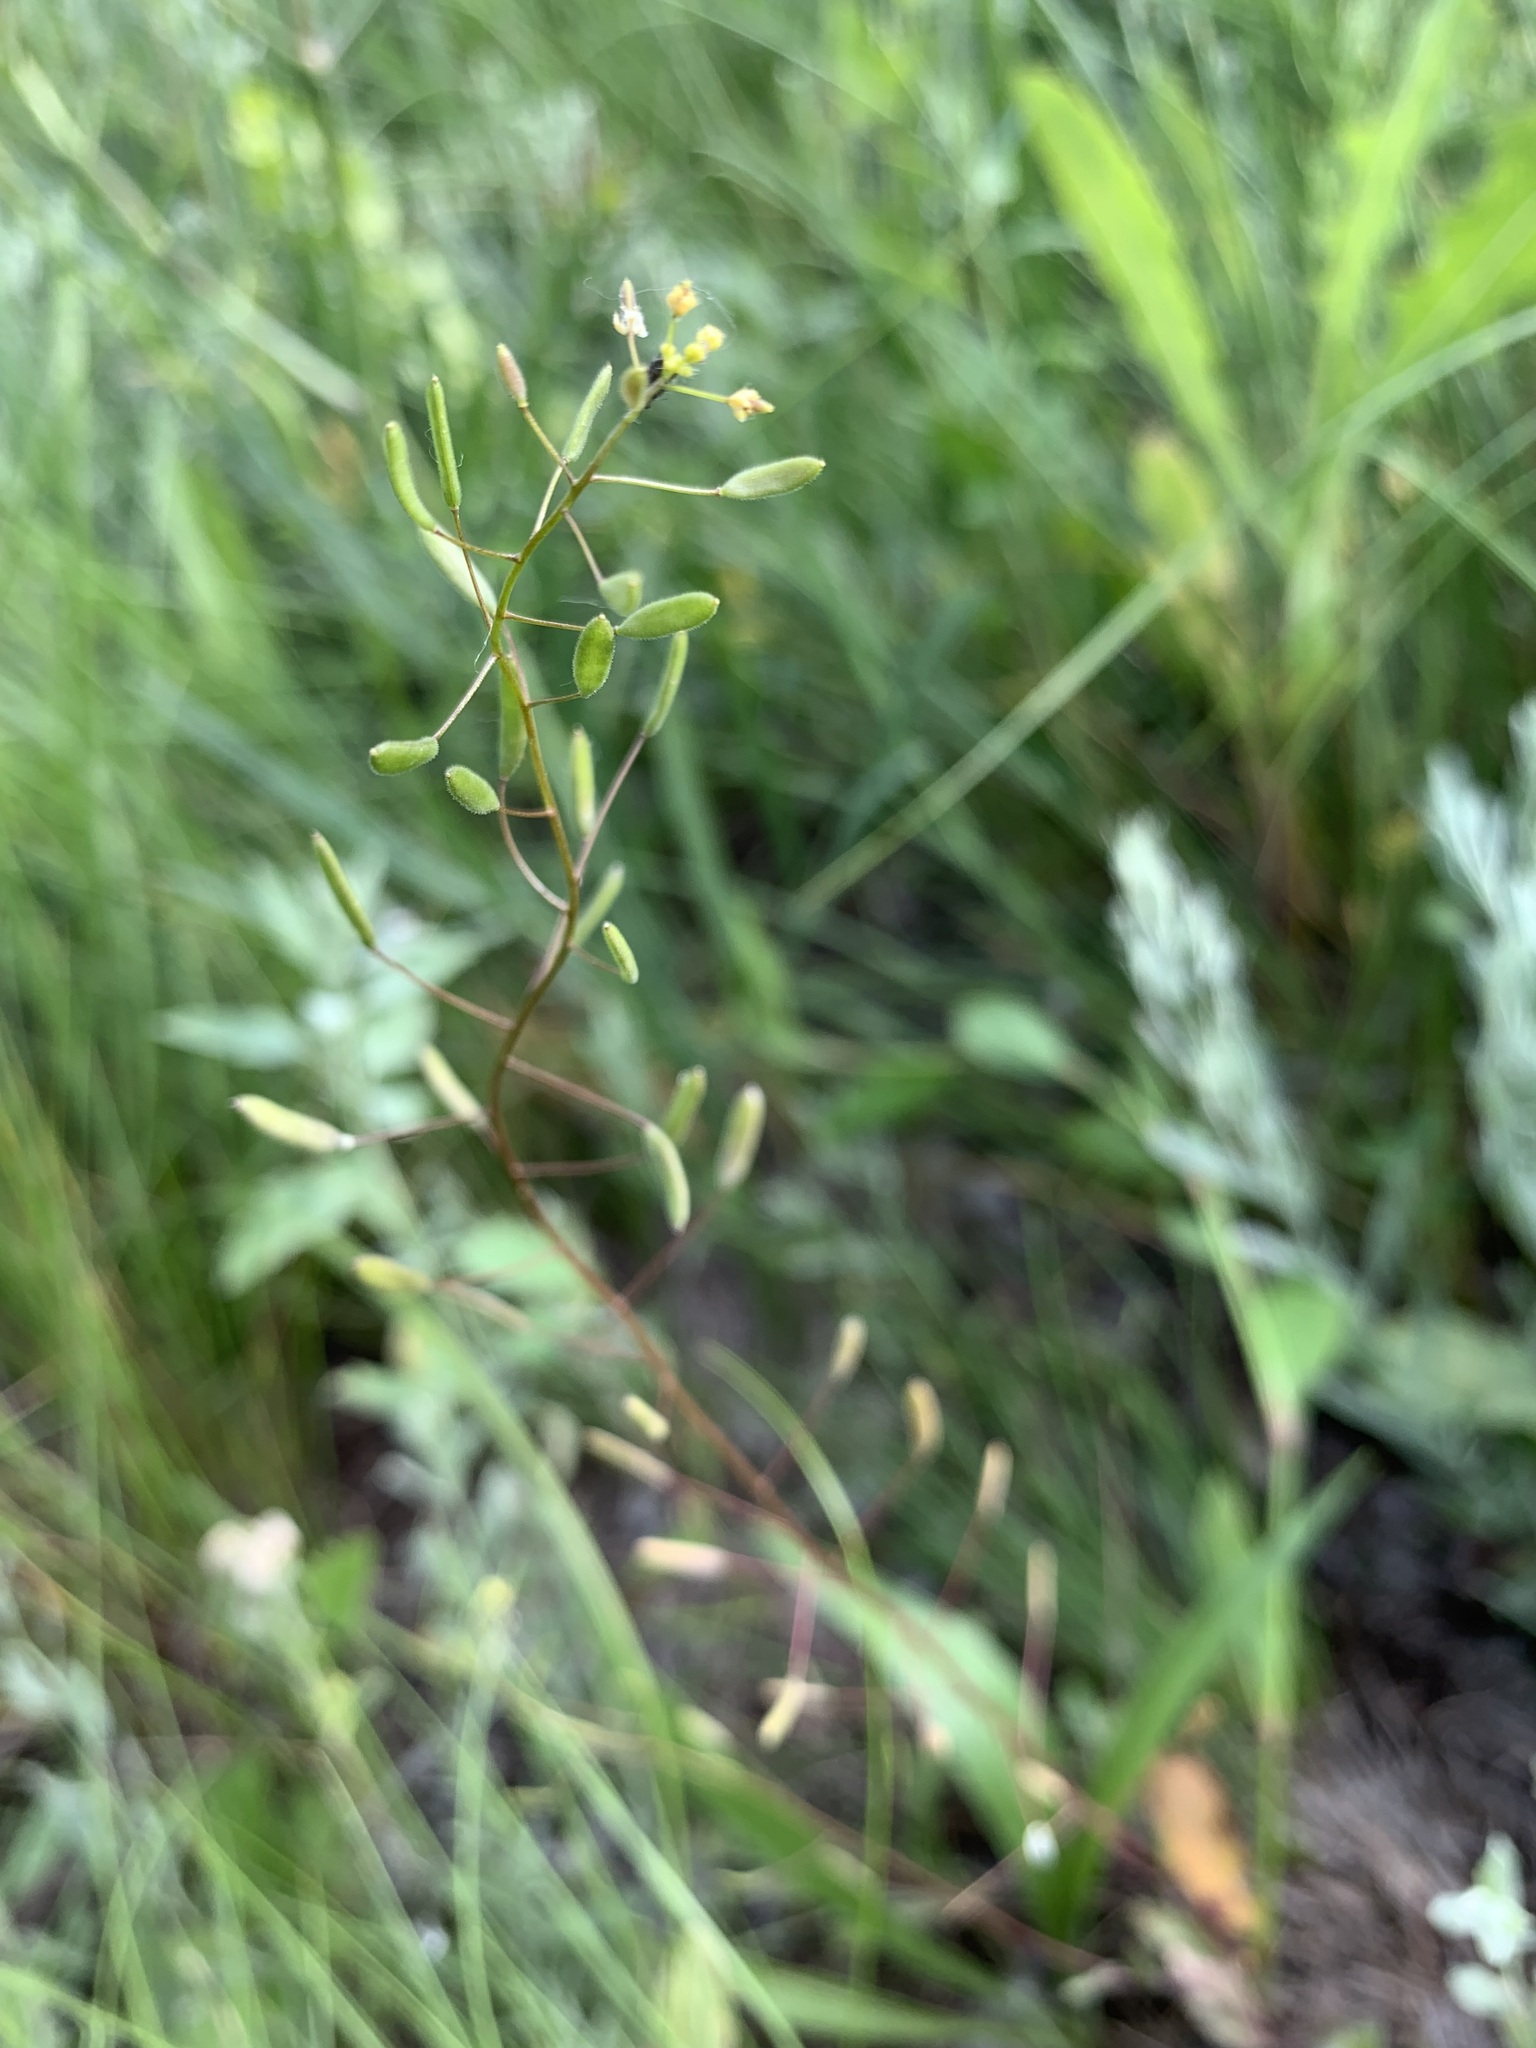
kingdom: Plantae
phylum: Tracheophyta
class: Magnoliopsida
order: Brassicales
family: Brassicaceae
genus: Draba
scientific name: Draba nemorosa
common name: Wood whitlow-grass
